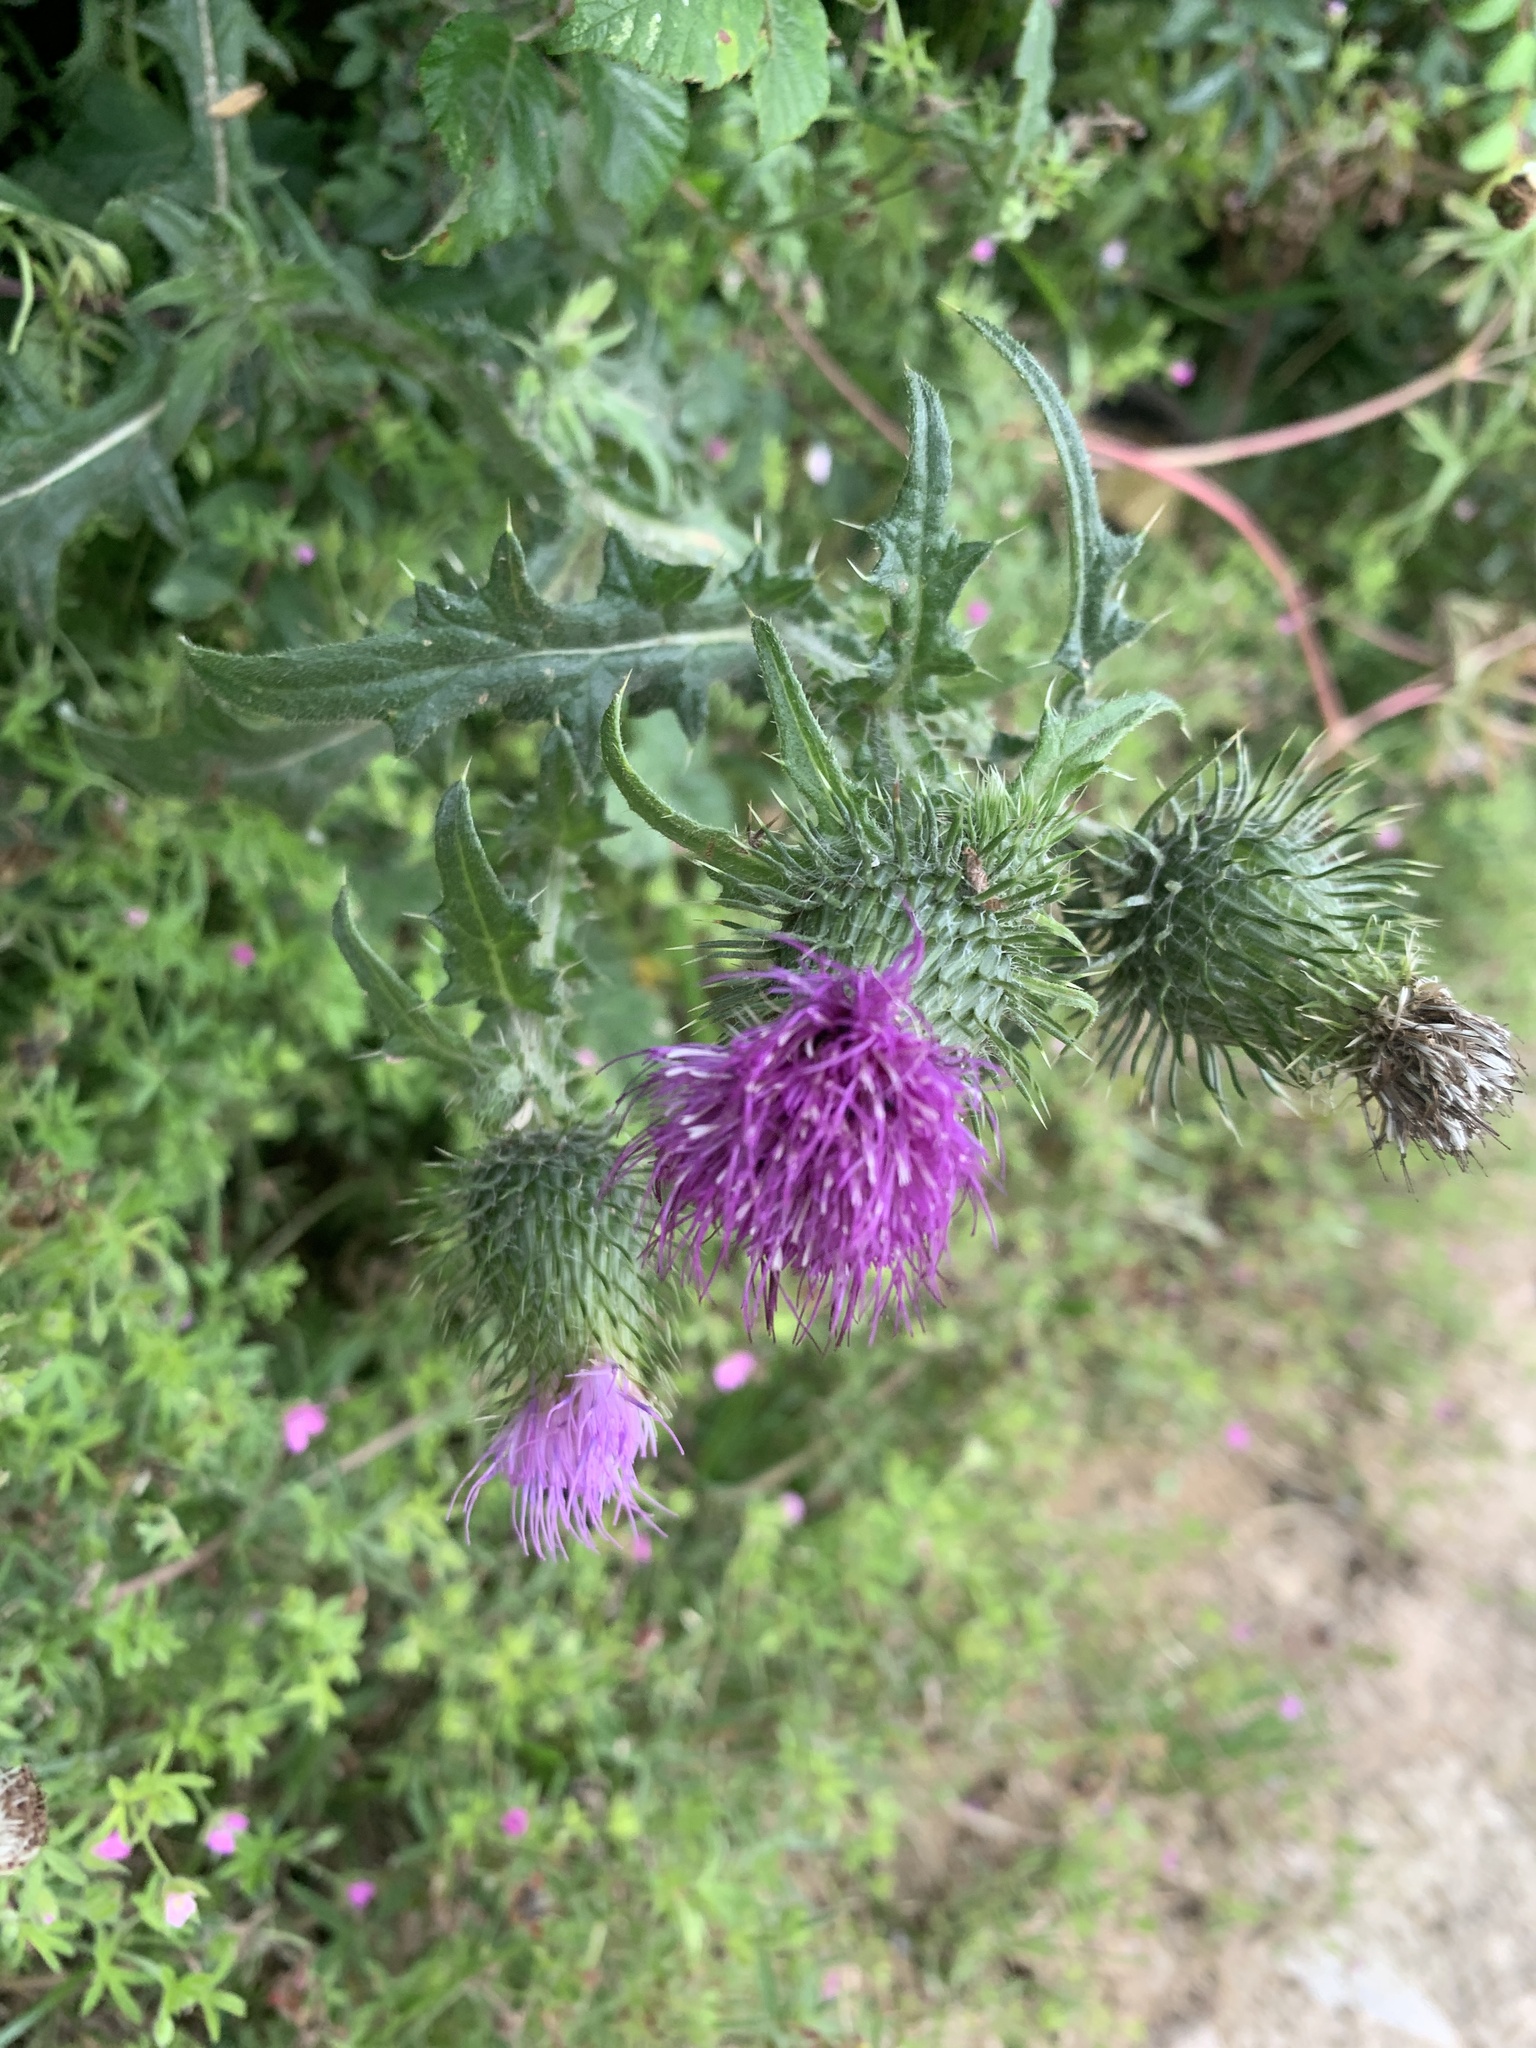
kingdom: Plantae
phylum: Tracheophyta
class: Magnoliopsida
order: Asterales
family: Asteraceae
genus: Cirsium
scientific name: Cirsium vulgare
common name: Bull thistle
